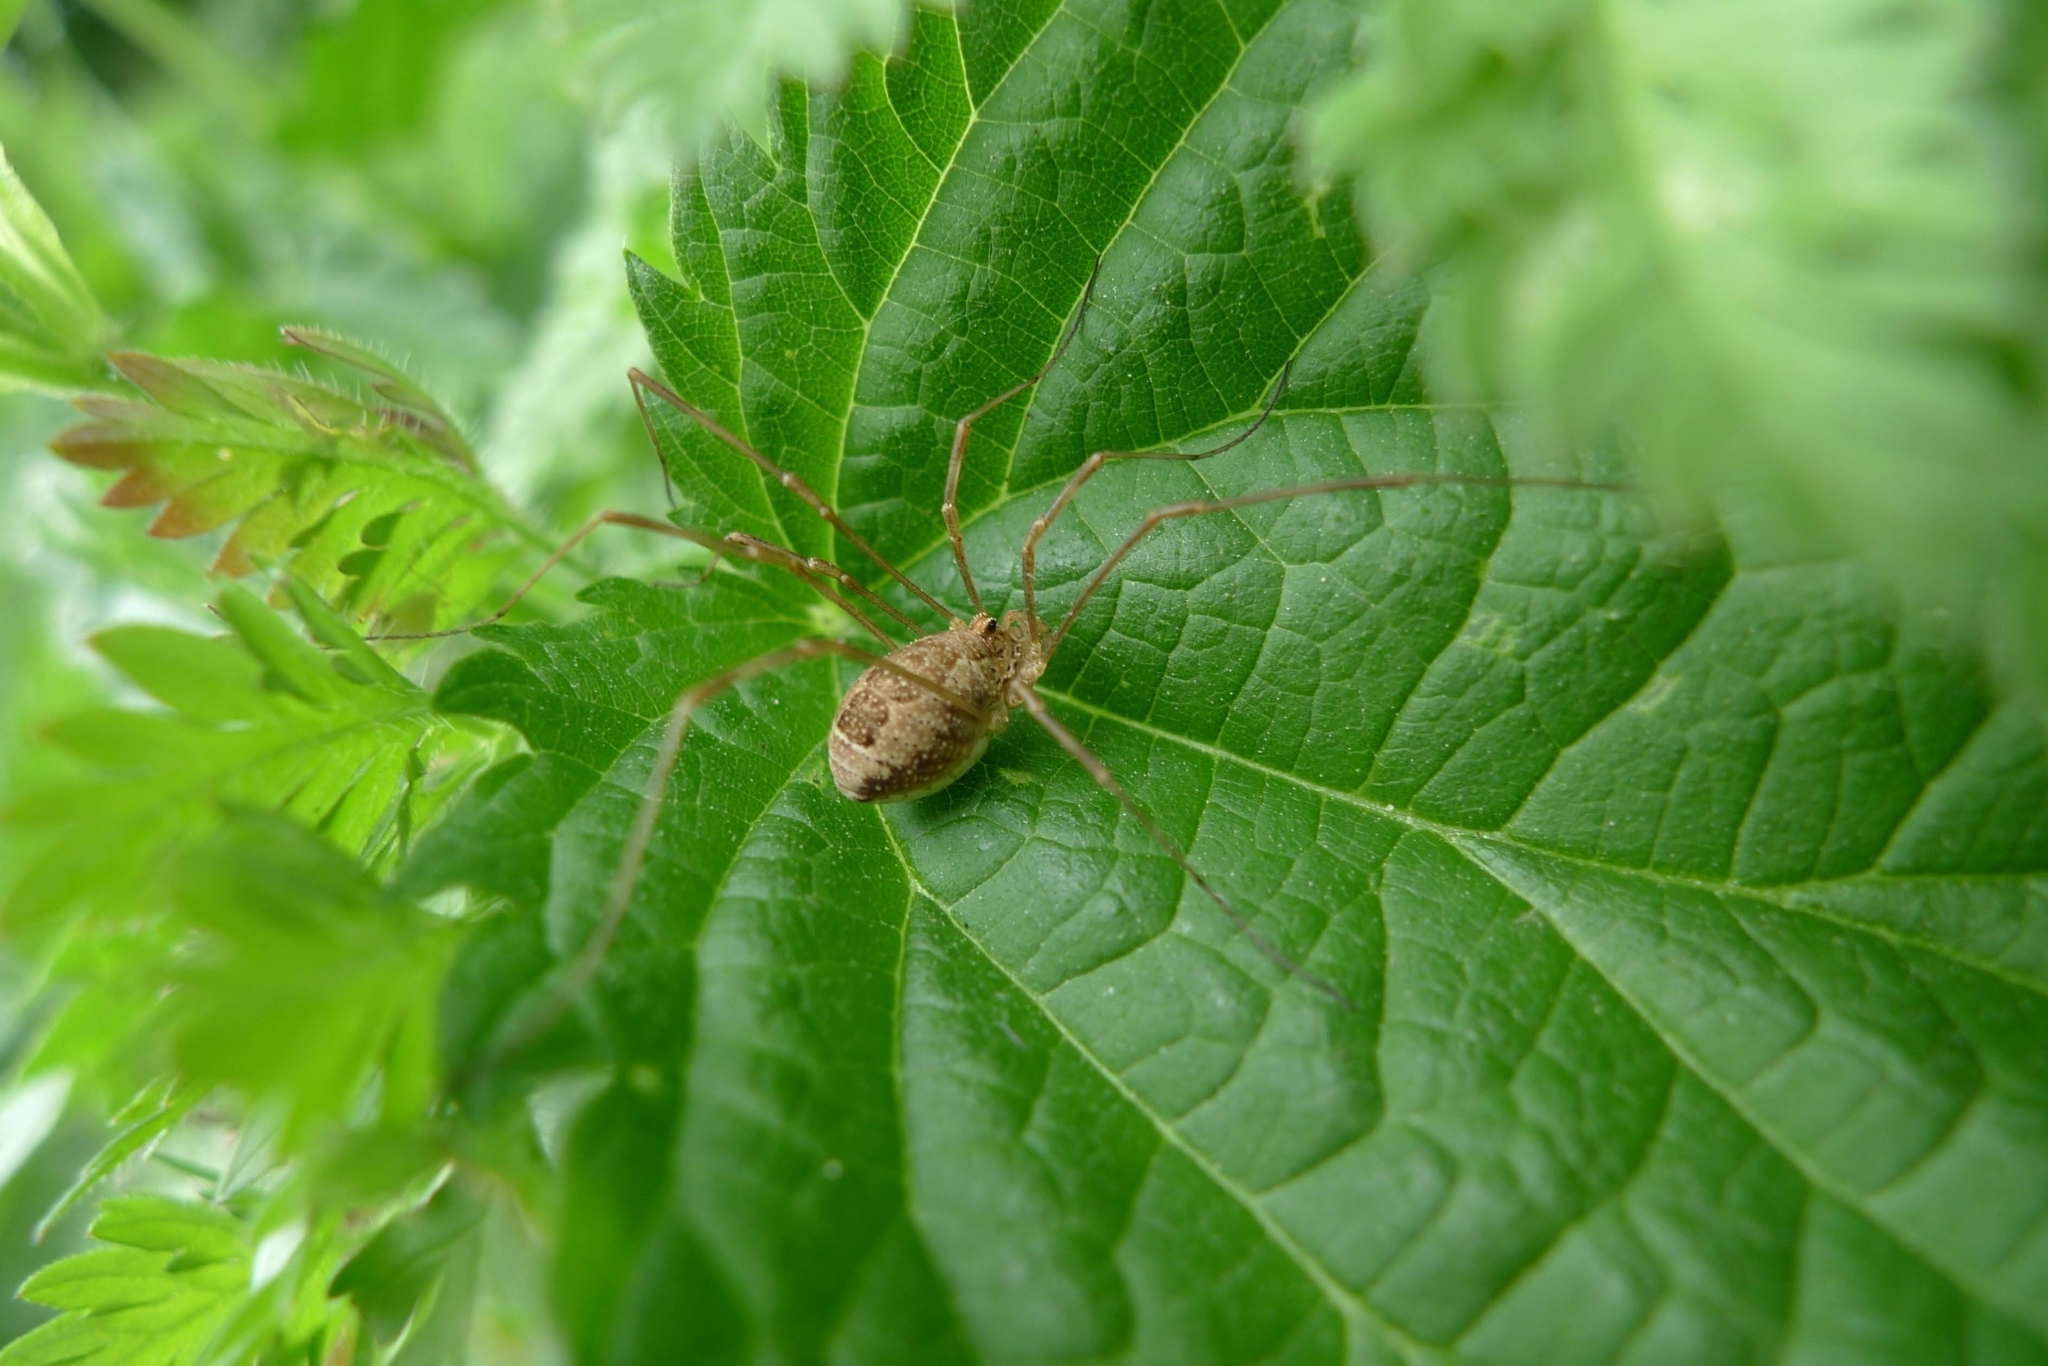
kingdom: Animalia
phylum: Arthropoda
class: Arachnida
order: Opiliones
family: Phalangiidae
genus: Rilaena
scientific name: Rilaena triangularis
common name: Spring harvestman
